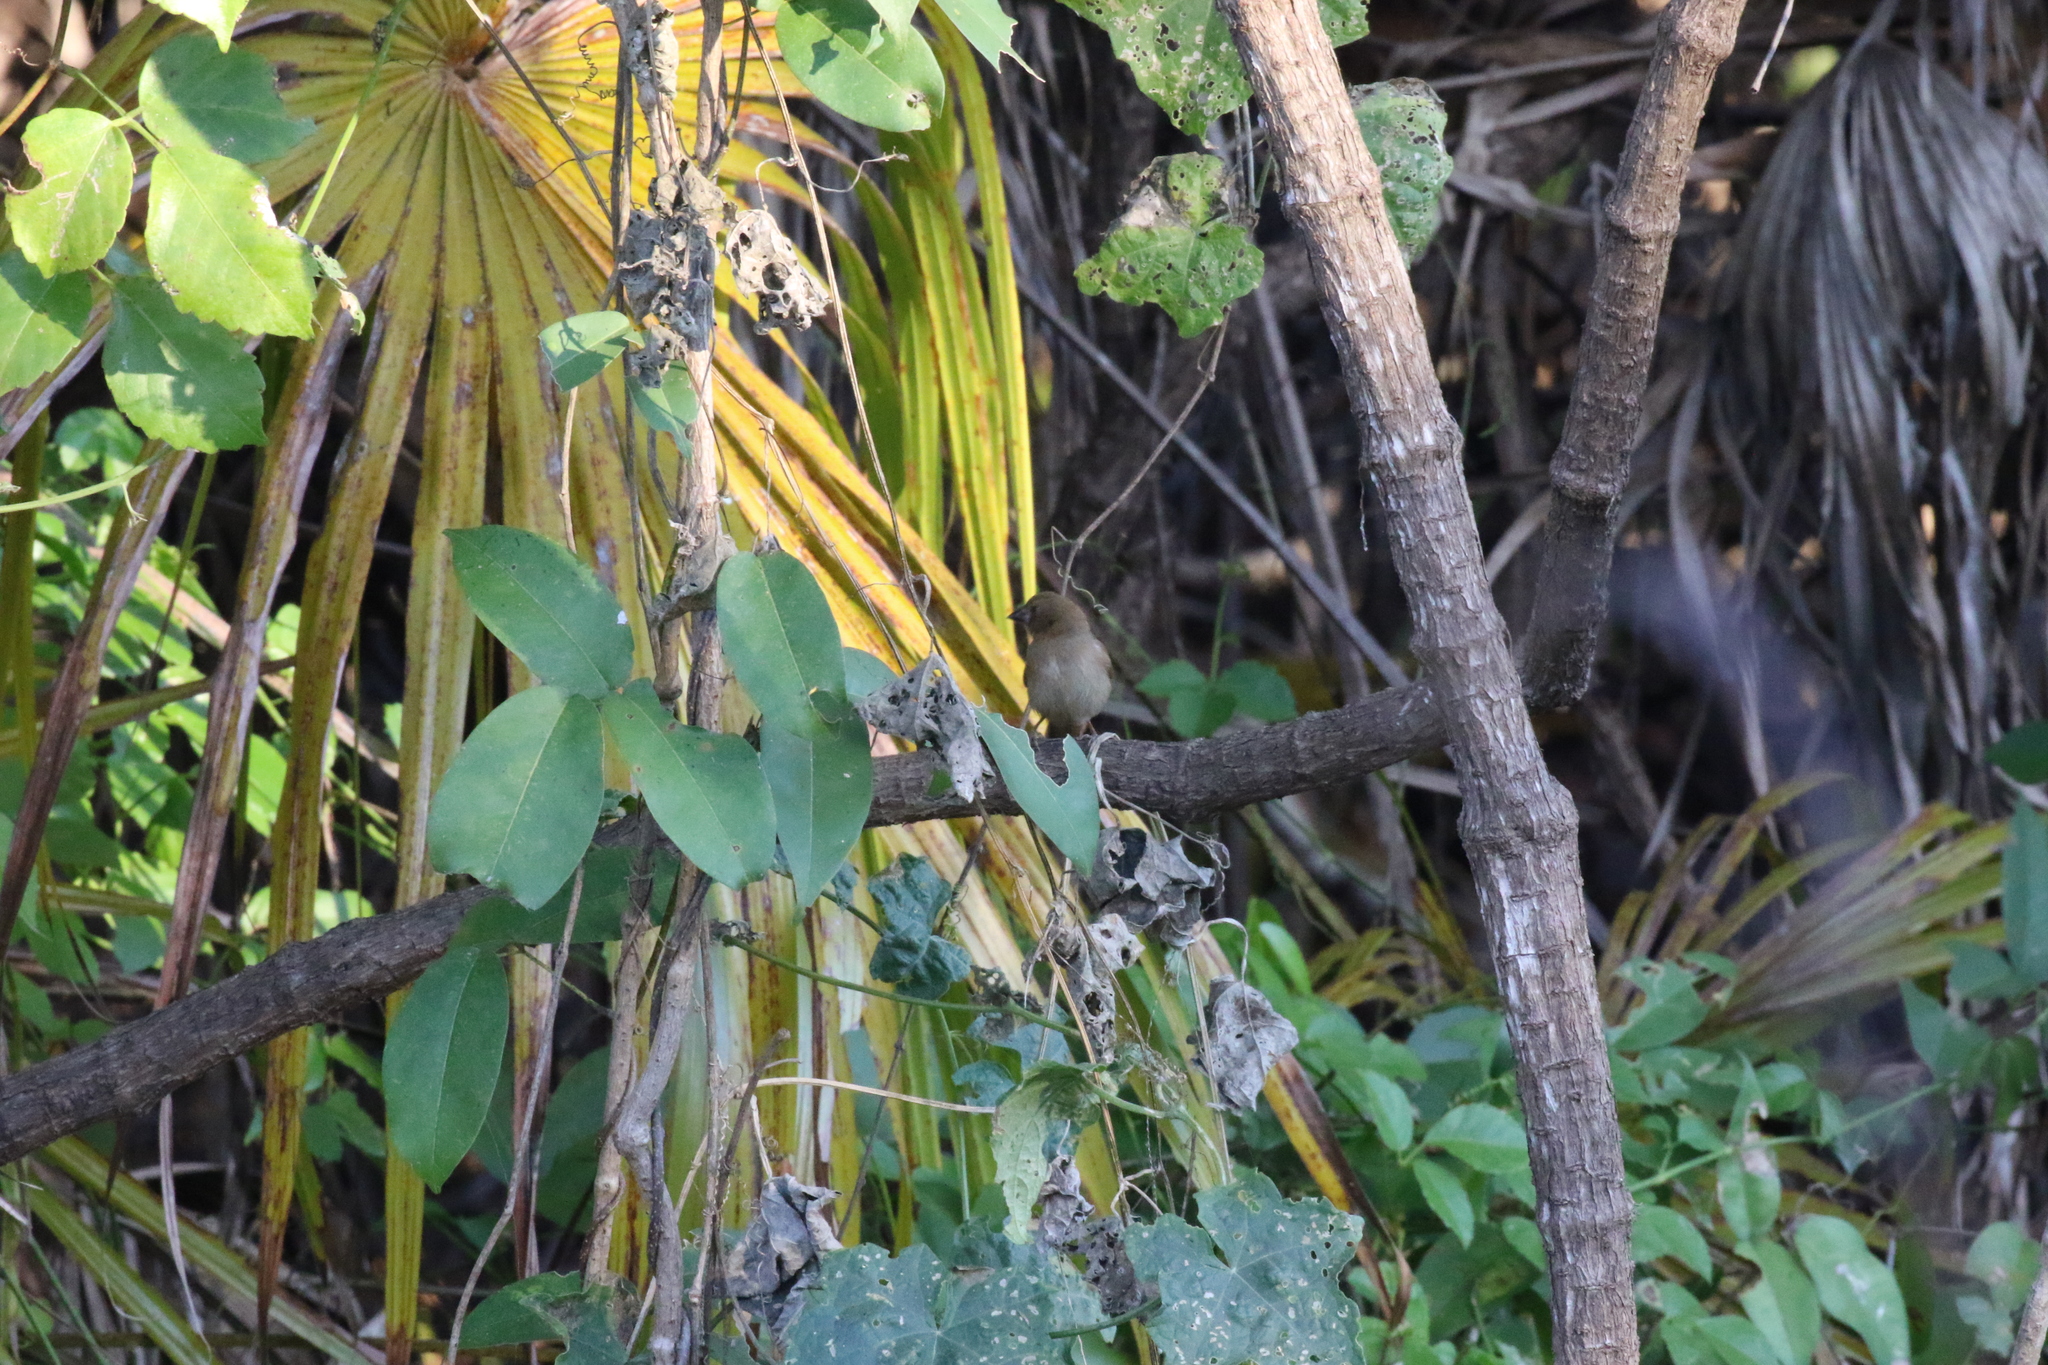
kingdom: Animalia
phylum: Chordata
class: Aves
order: Passeriformes
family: Estrildidae
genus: Neochmia
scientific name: Neochmia phaeton
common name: Crimson finch
